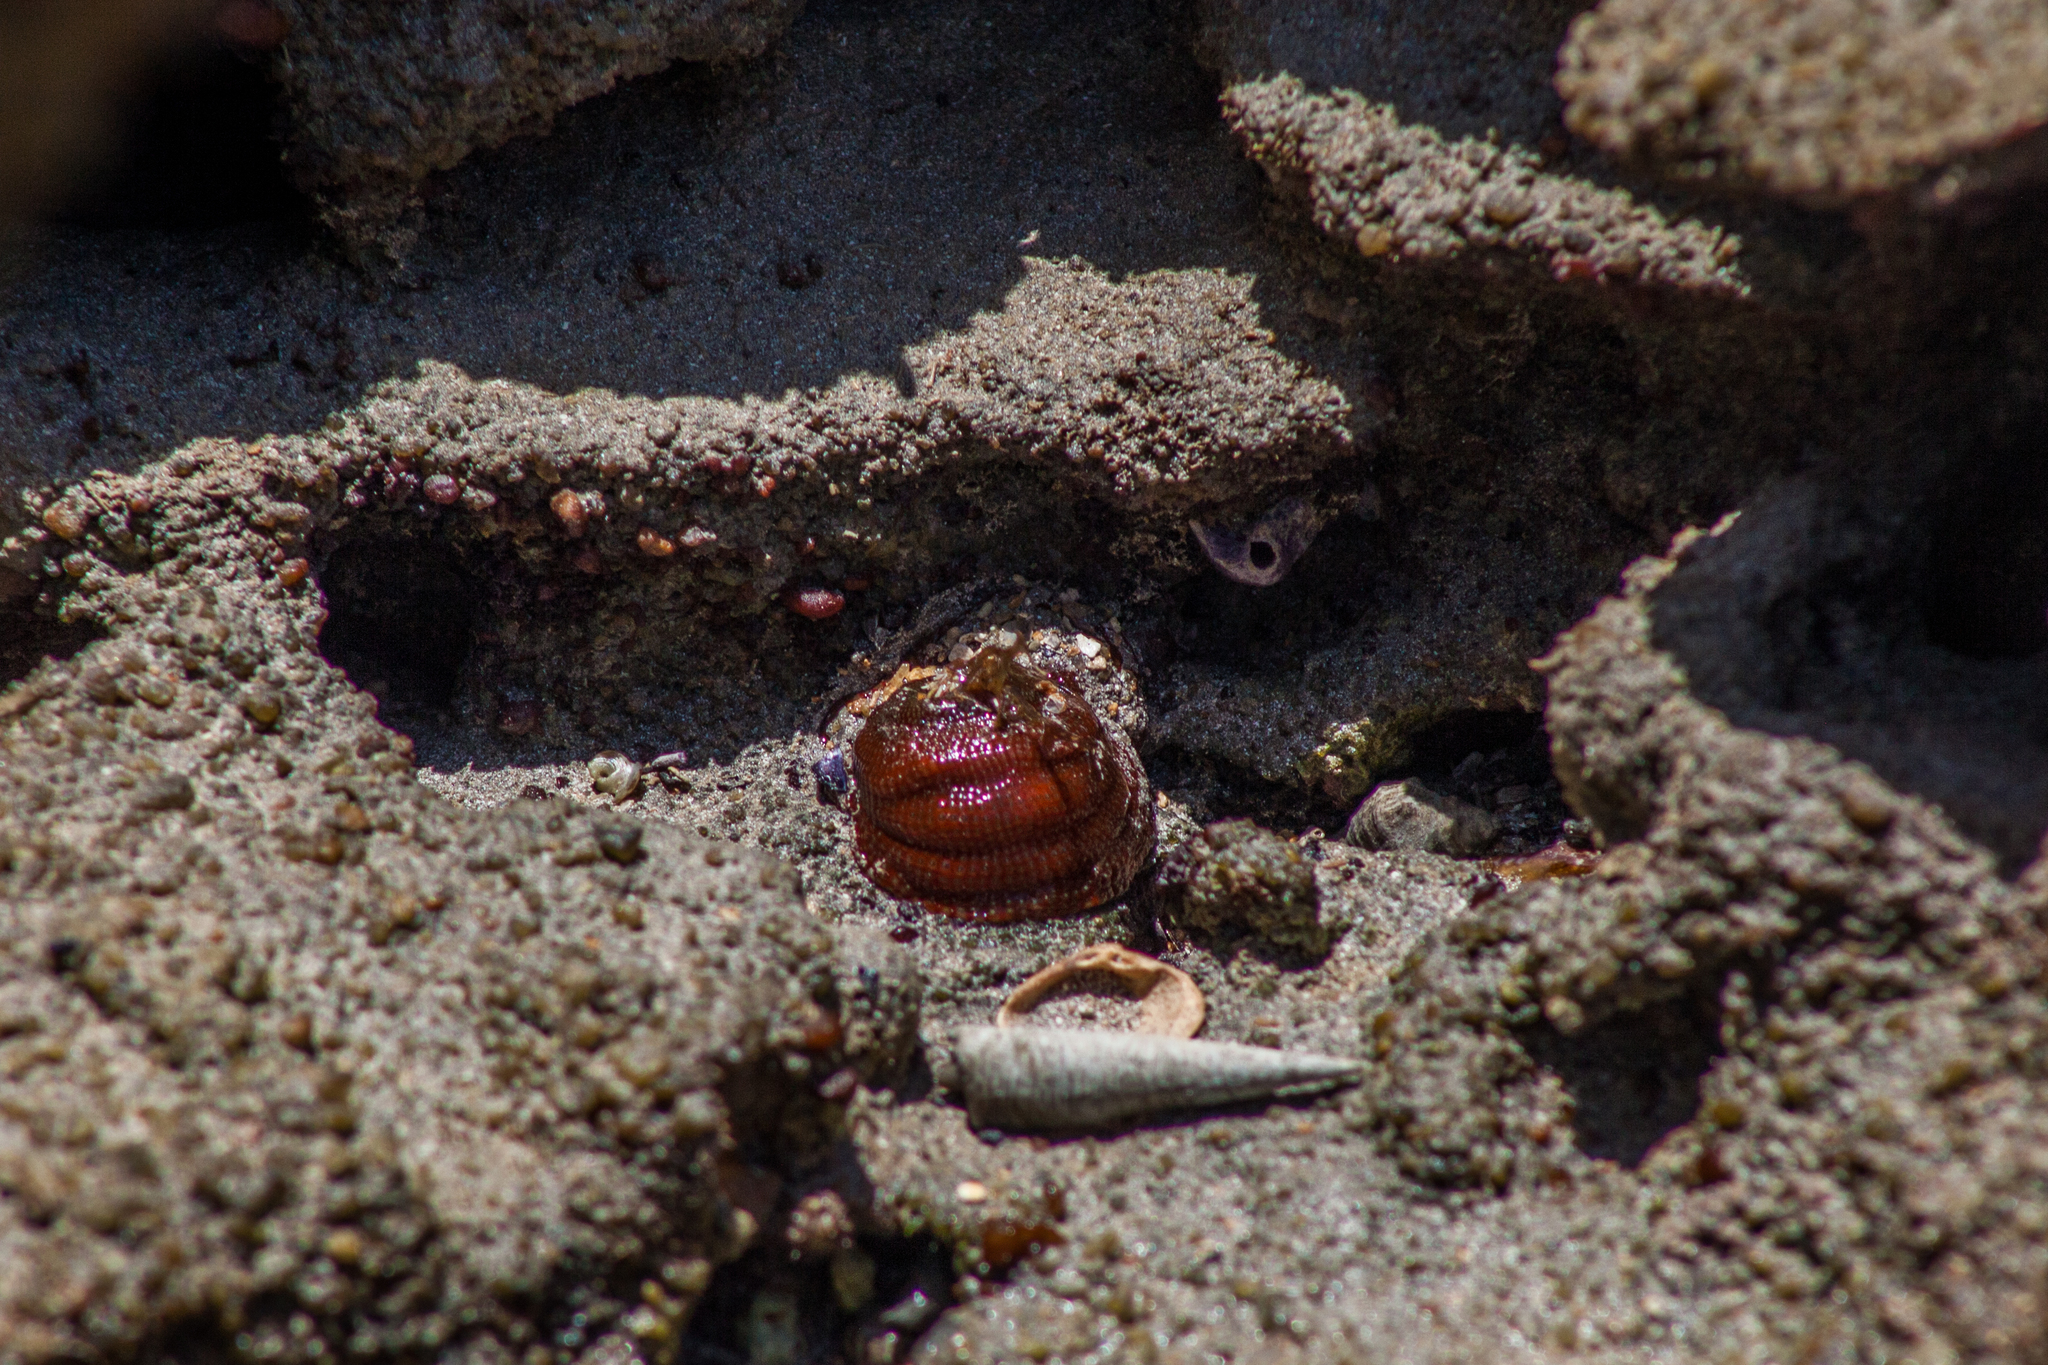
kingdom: Animalia
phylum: Cnidaria
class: Anthozoa
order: Actiniaria
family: Actiniidae
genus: Bunodosoma
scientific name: Bunodosoma cangicum
